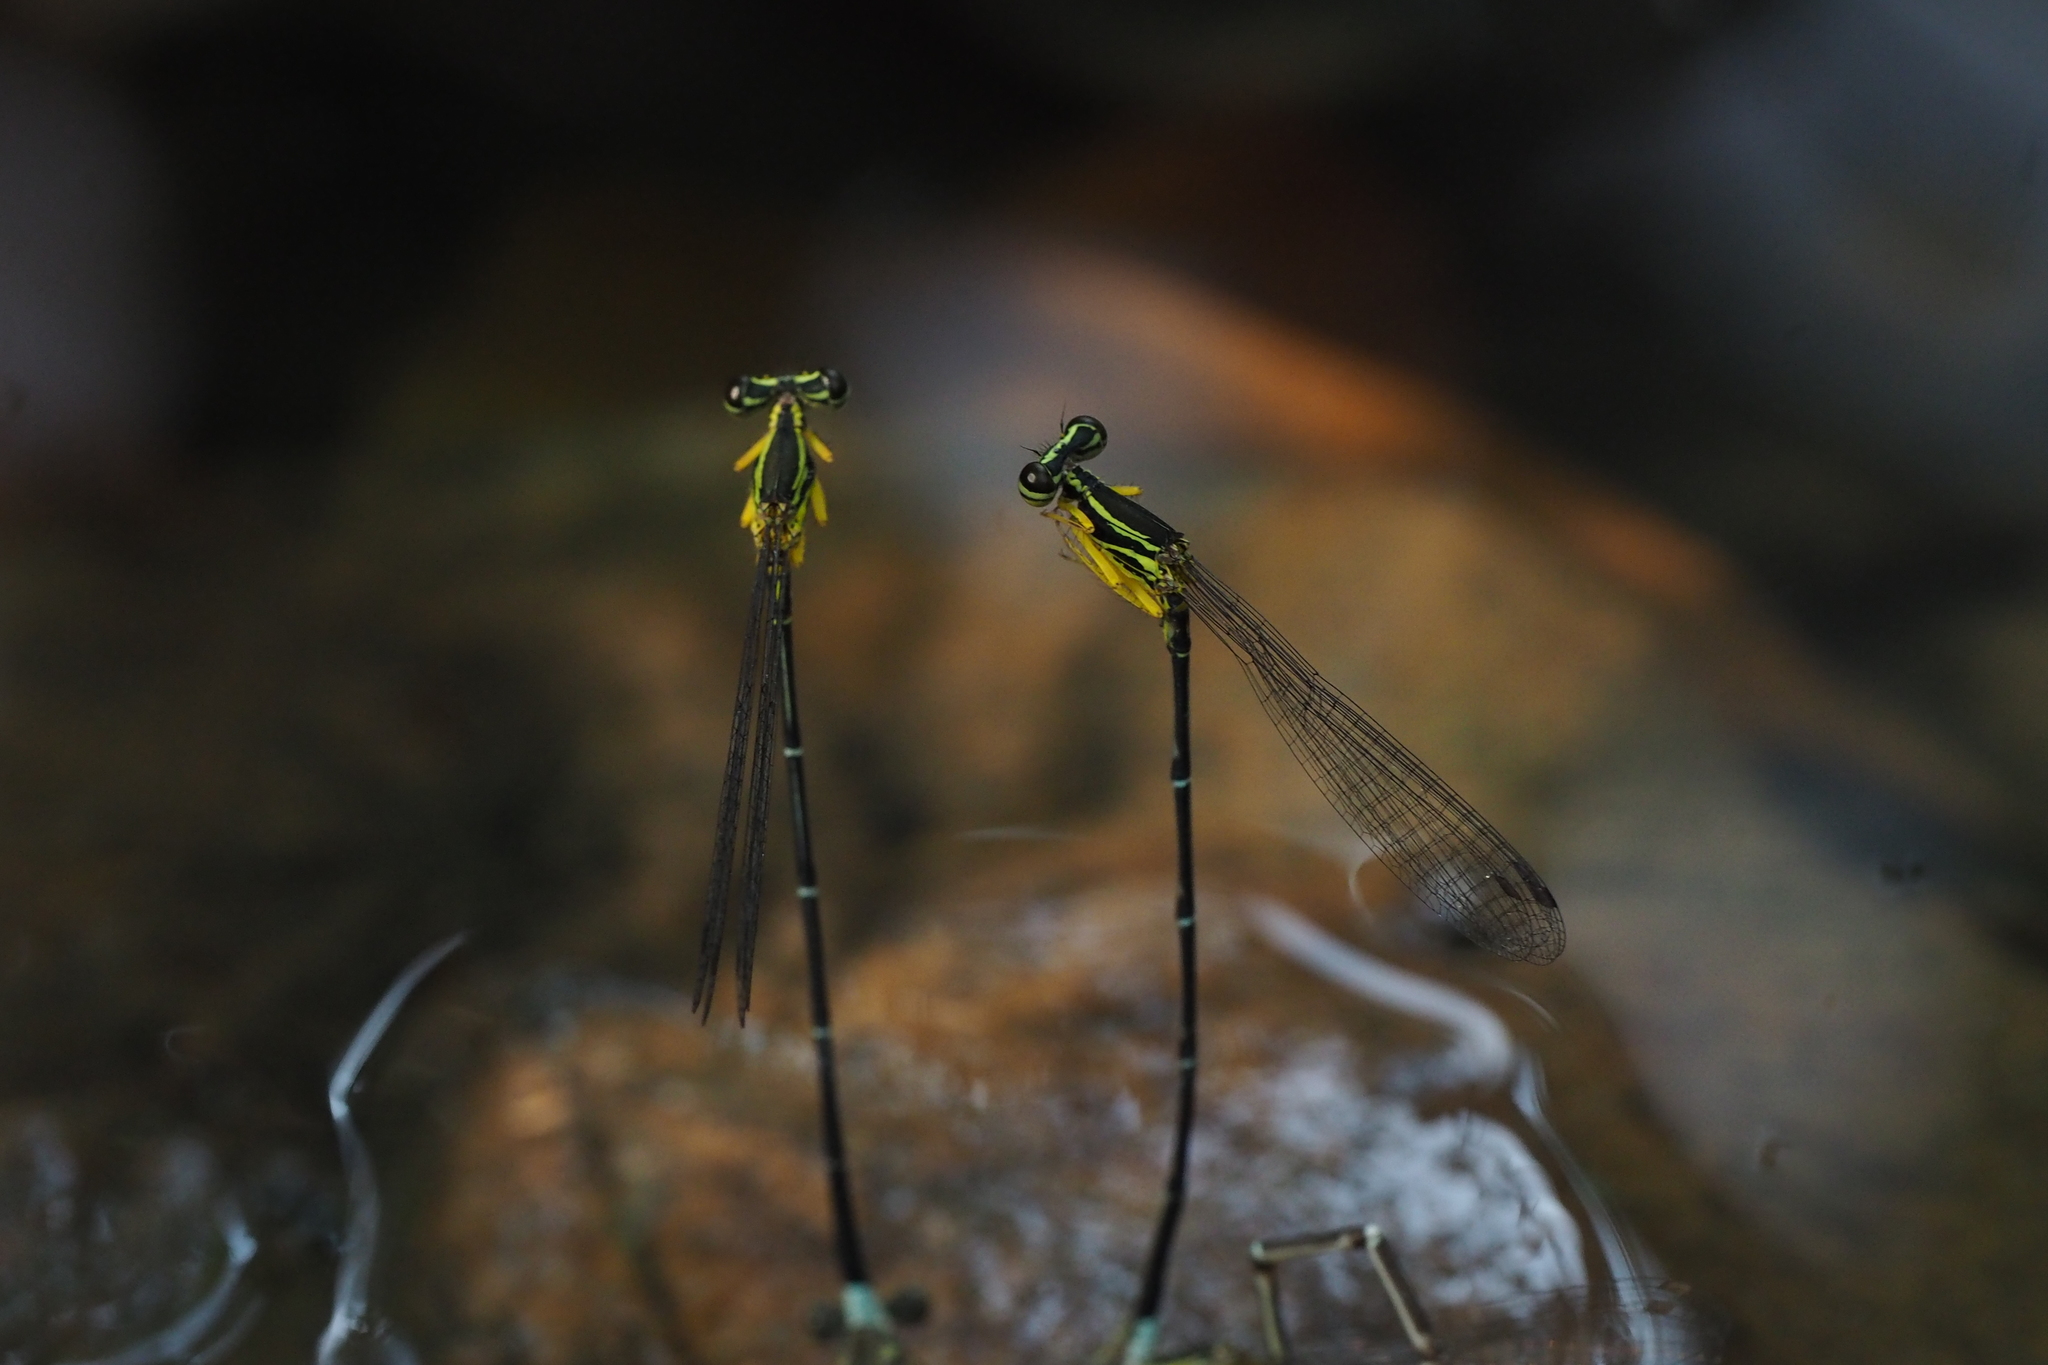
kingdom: Animalia
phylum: Arthropoda
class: Insecta
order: Odonata
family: Platycnemididae
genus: Copera
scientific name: Copera marginipes
